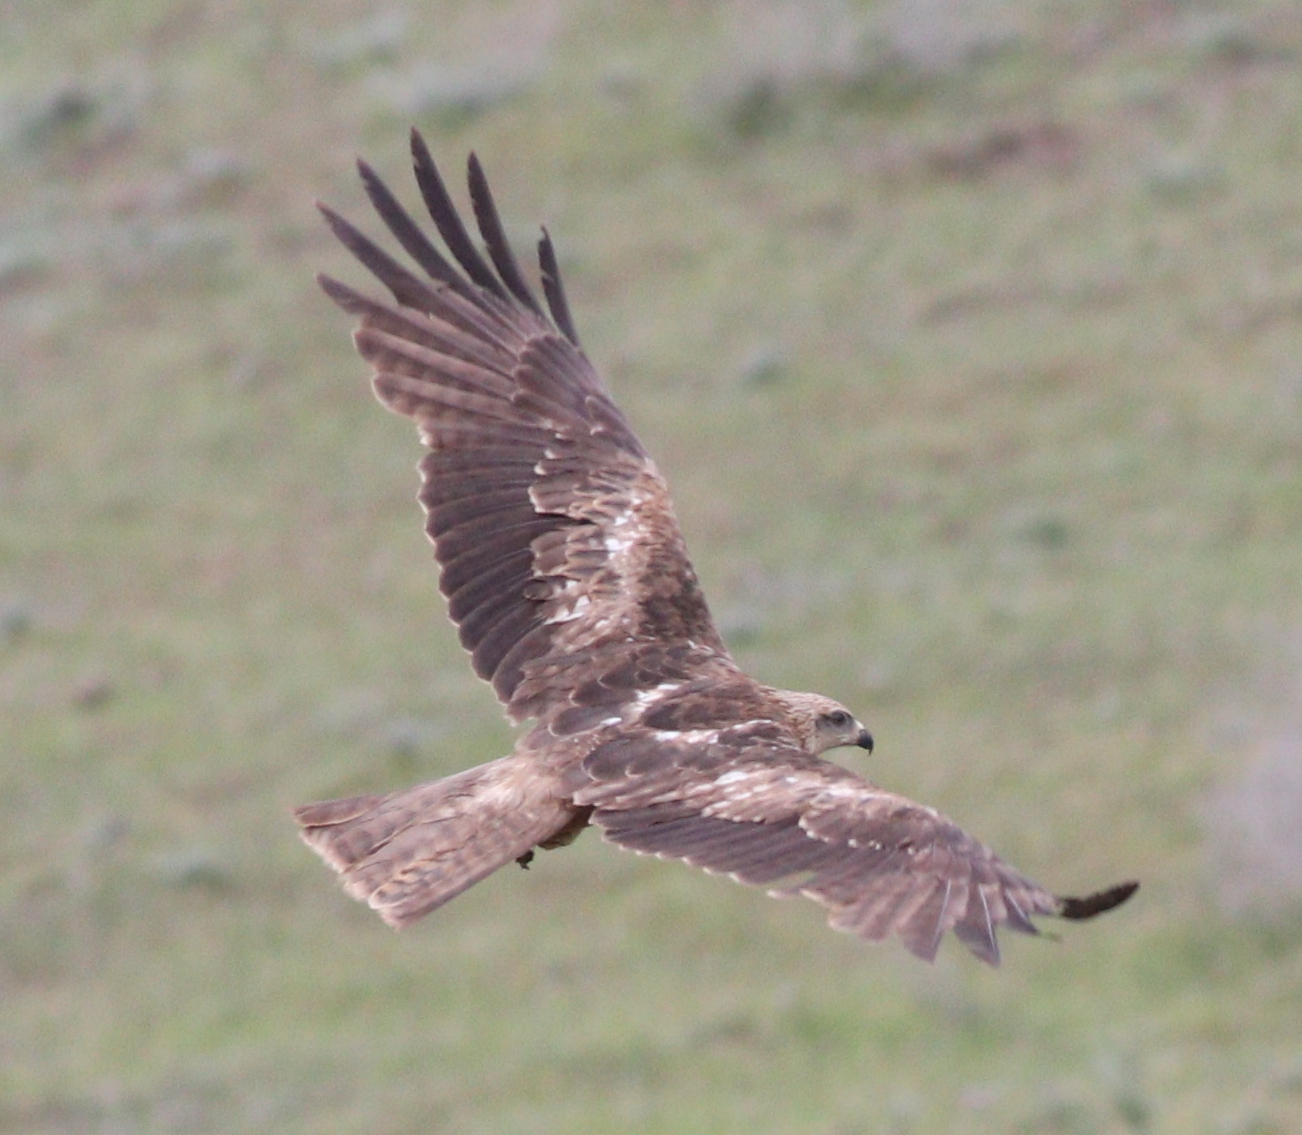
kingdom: Animalia
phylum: Chordata
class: Aves
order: Accipitriformes
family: Accipitridae
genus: Milvus
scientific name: Milvus migrans
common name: Black kite
